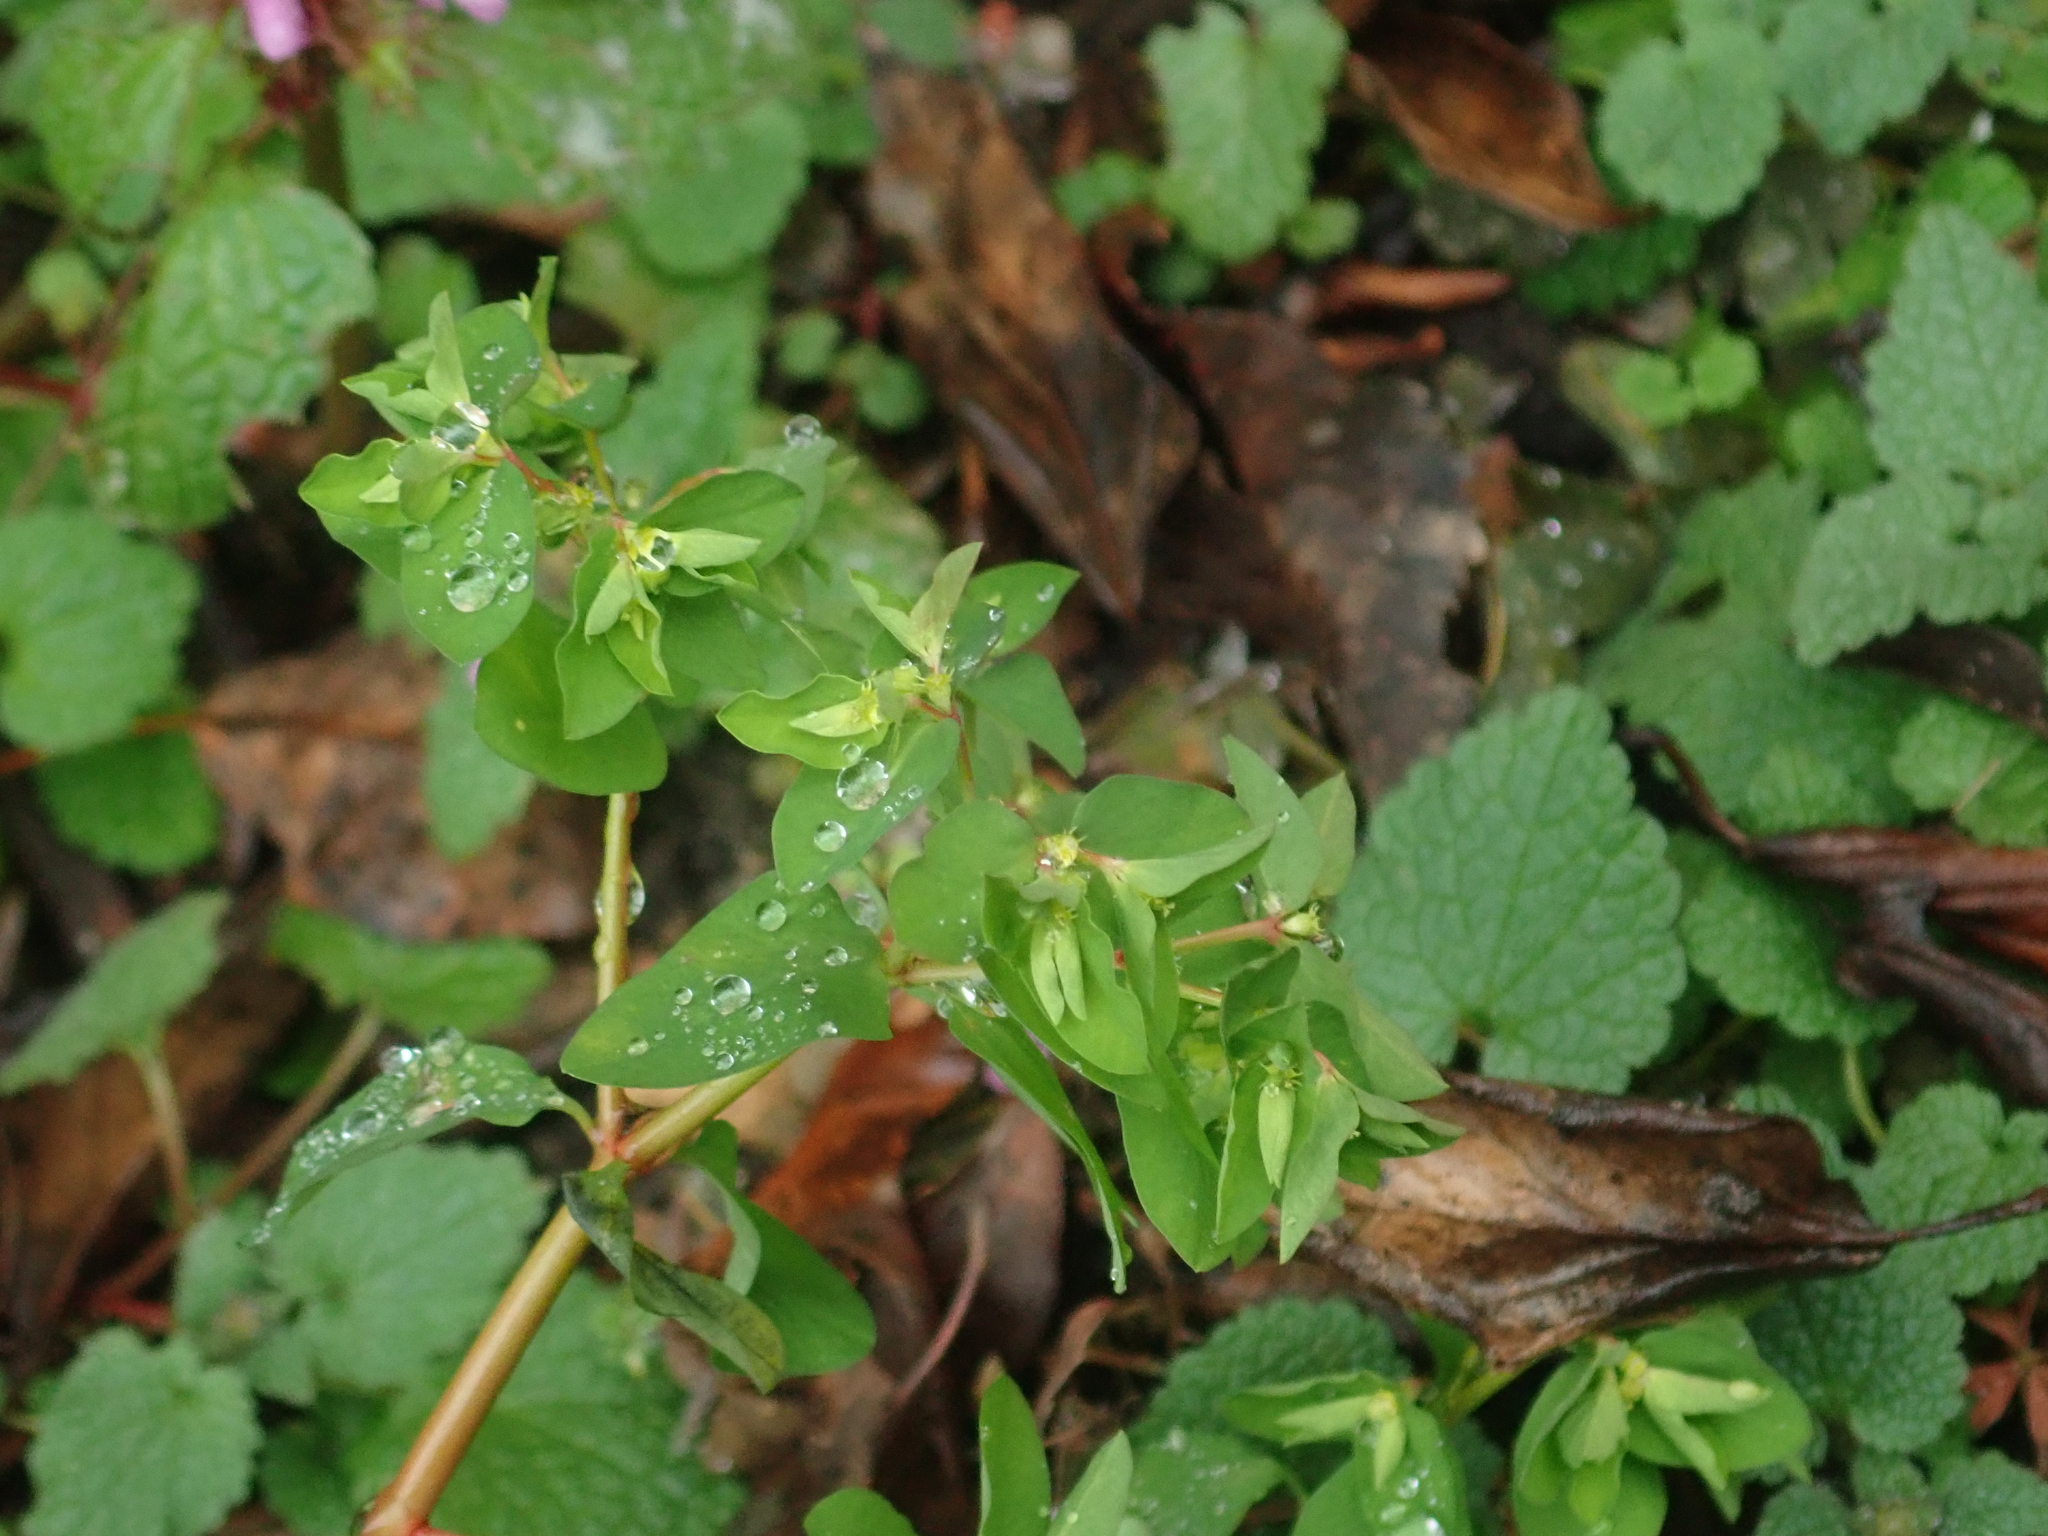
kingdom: Plantae
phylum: Tracheophyta
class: Magnoliopsida
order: Malpighiales
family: Euphorbiaceae
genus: Euphorbia
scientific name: Euphorbia peplus
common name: Petty spurge
